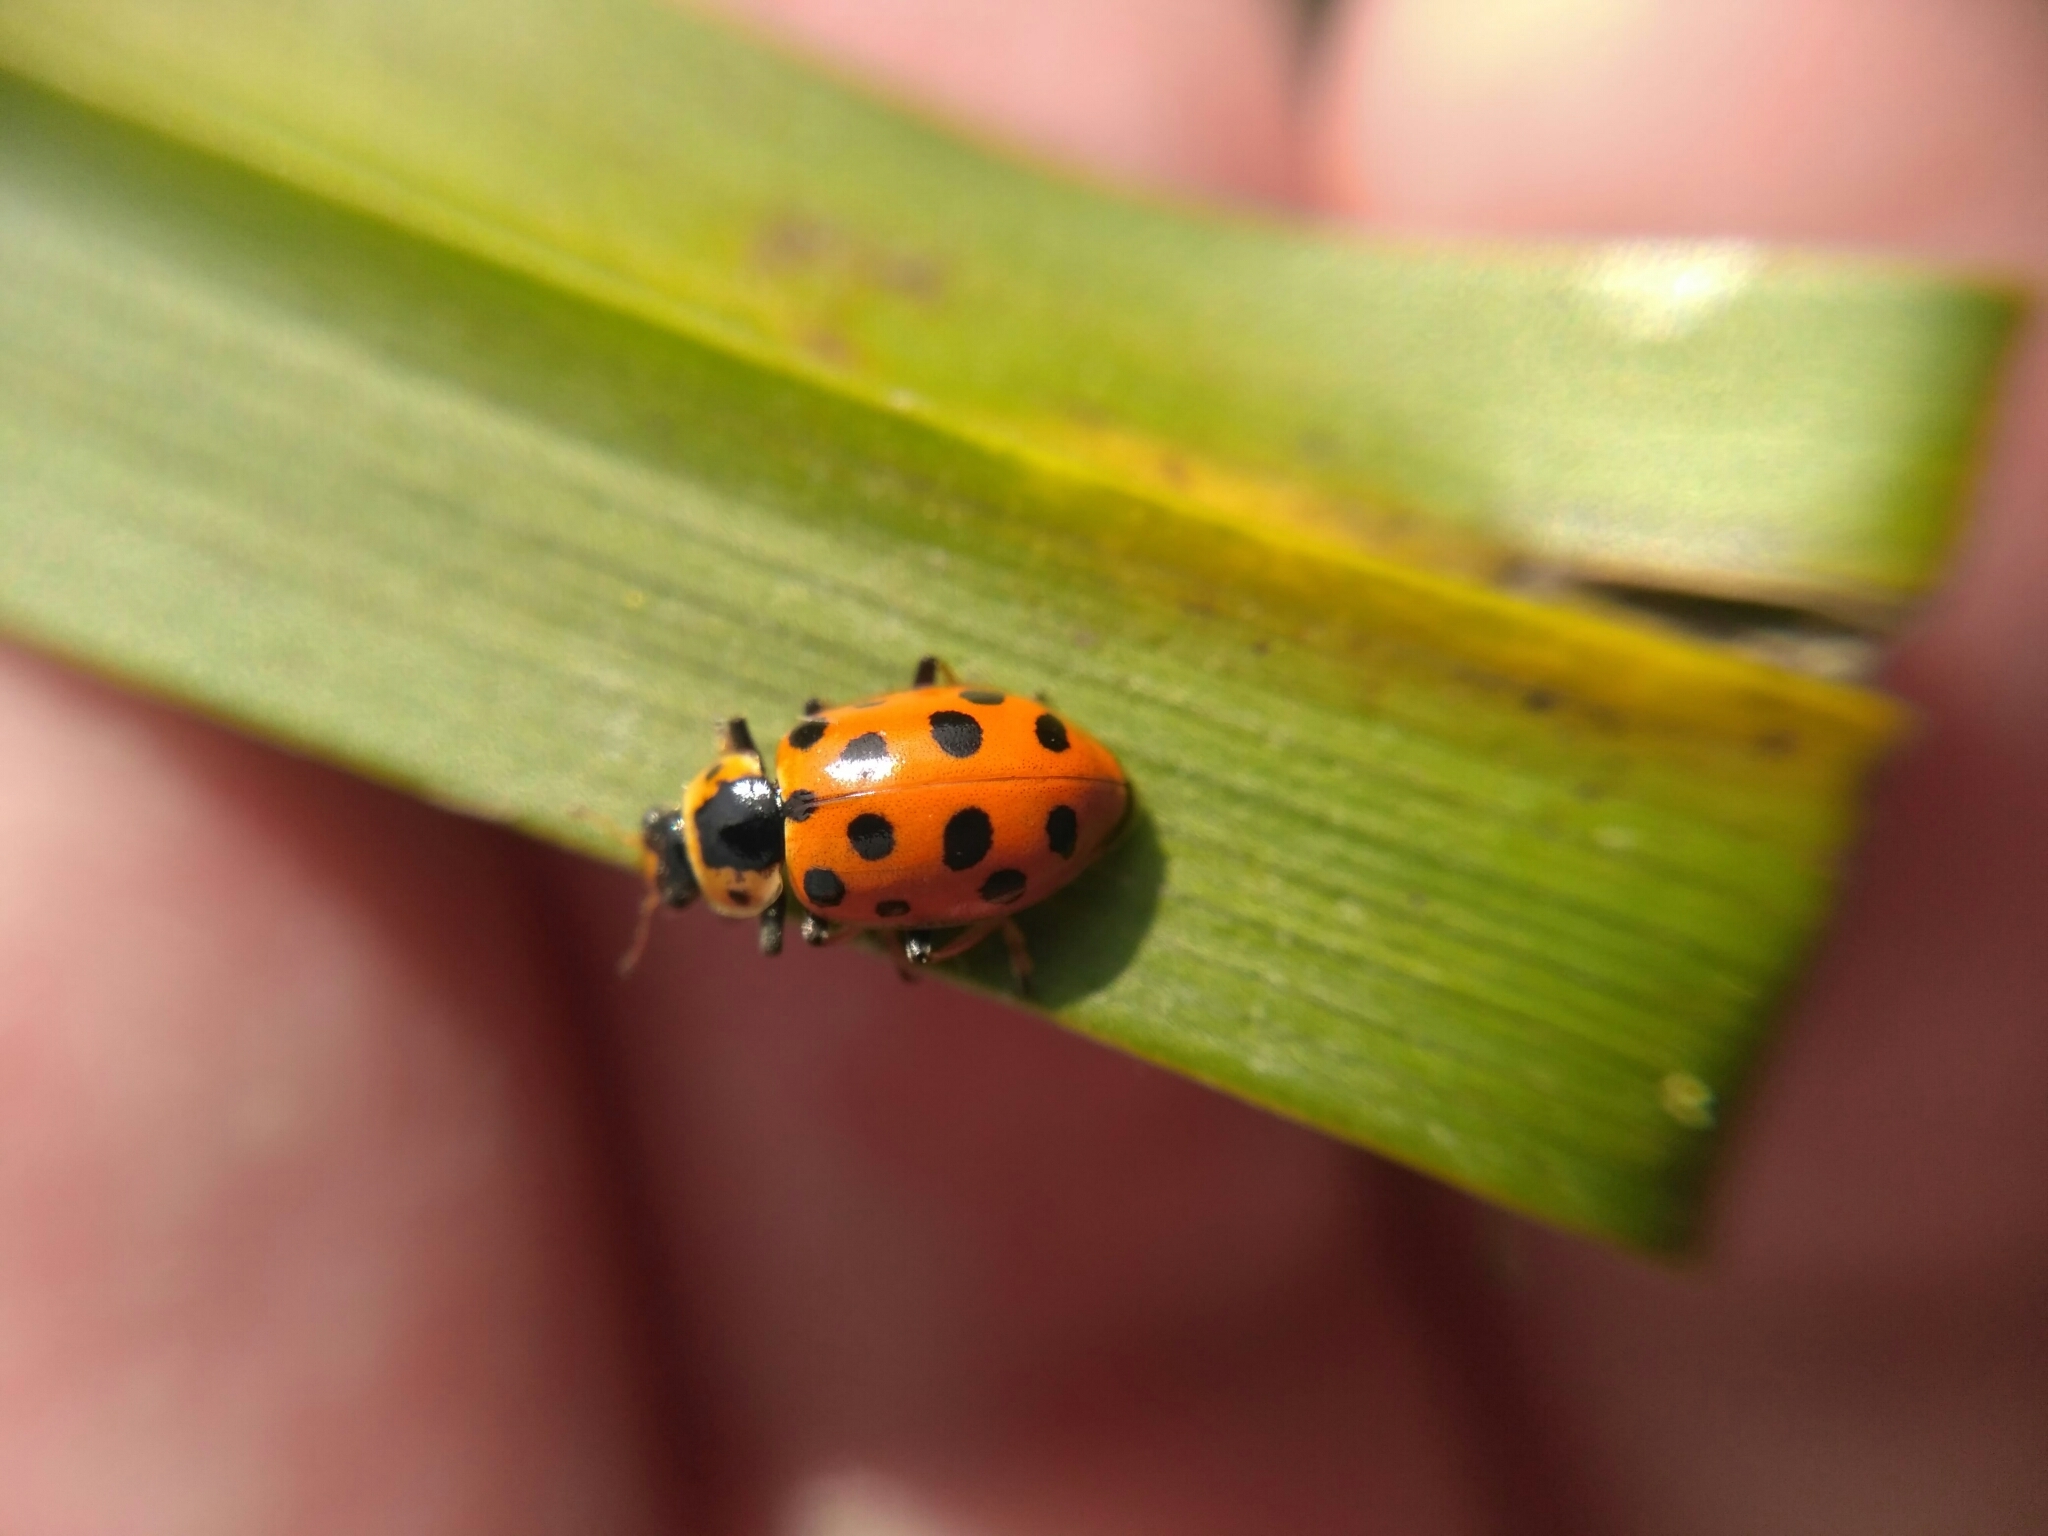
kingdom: Animalia
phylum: Arthropoda
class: Insecta
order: Coleoptera
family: Coccinellidae
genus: Hippodamia
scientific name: Hippodamia tredecimpunctata
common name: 13-spot ladybird
